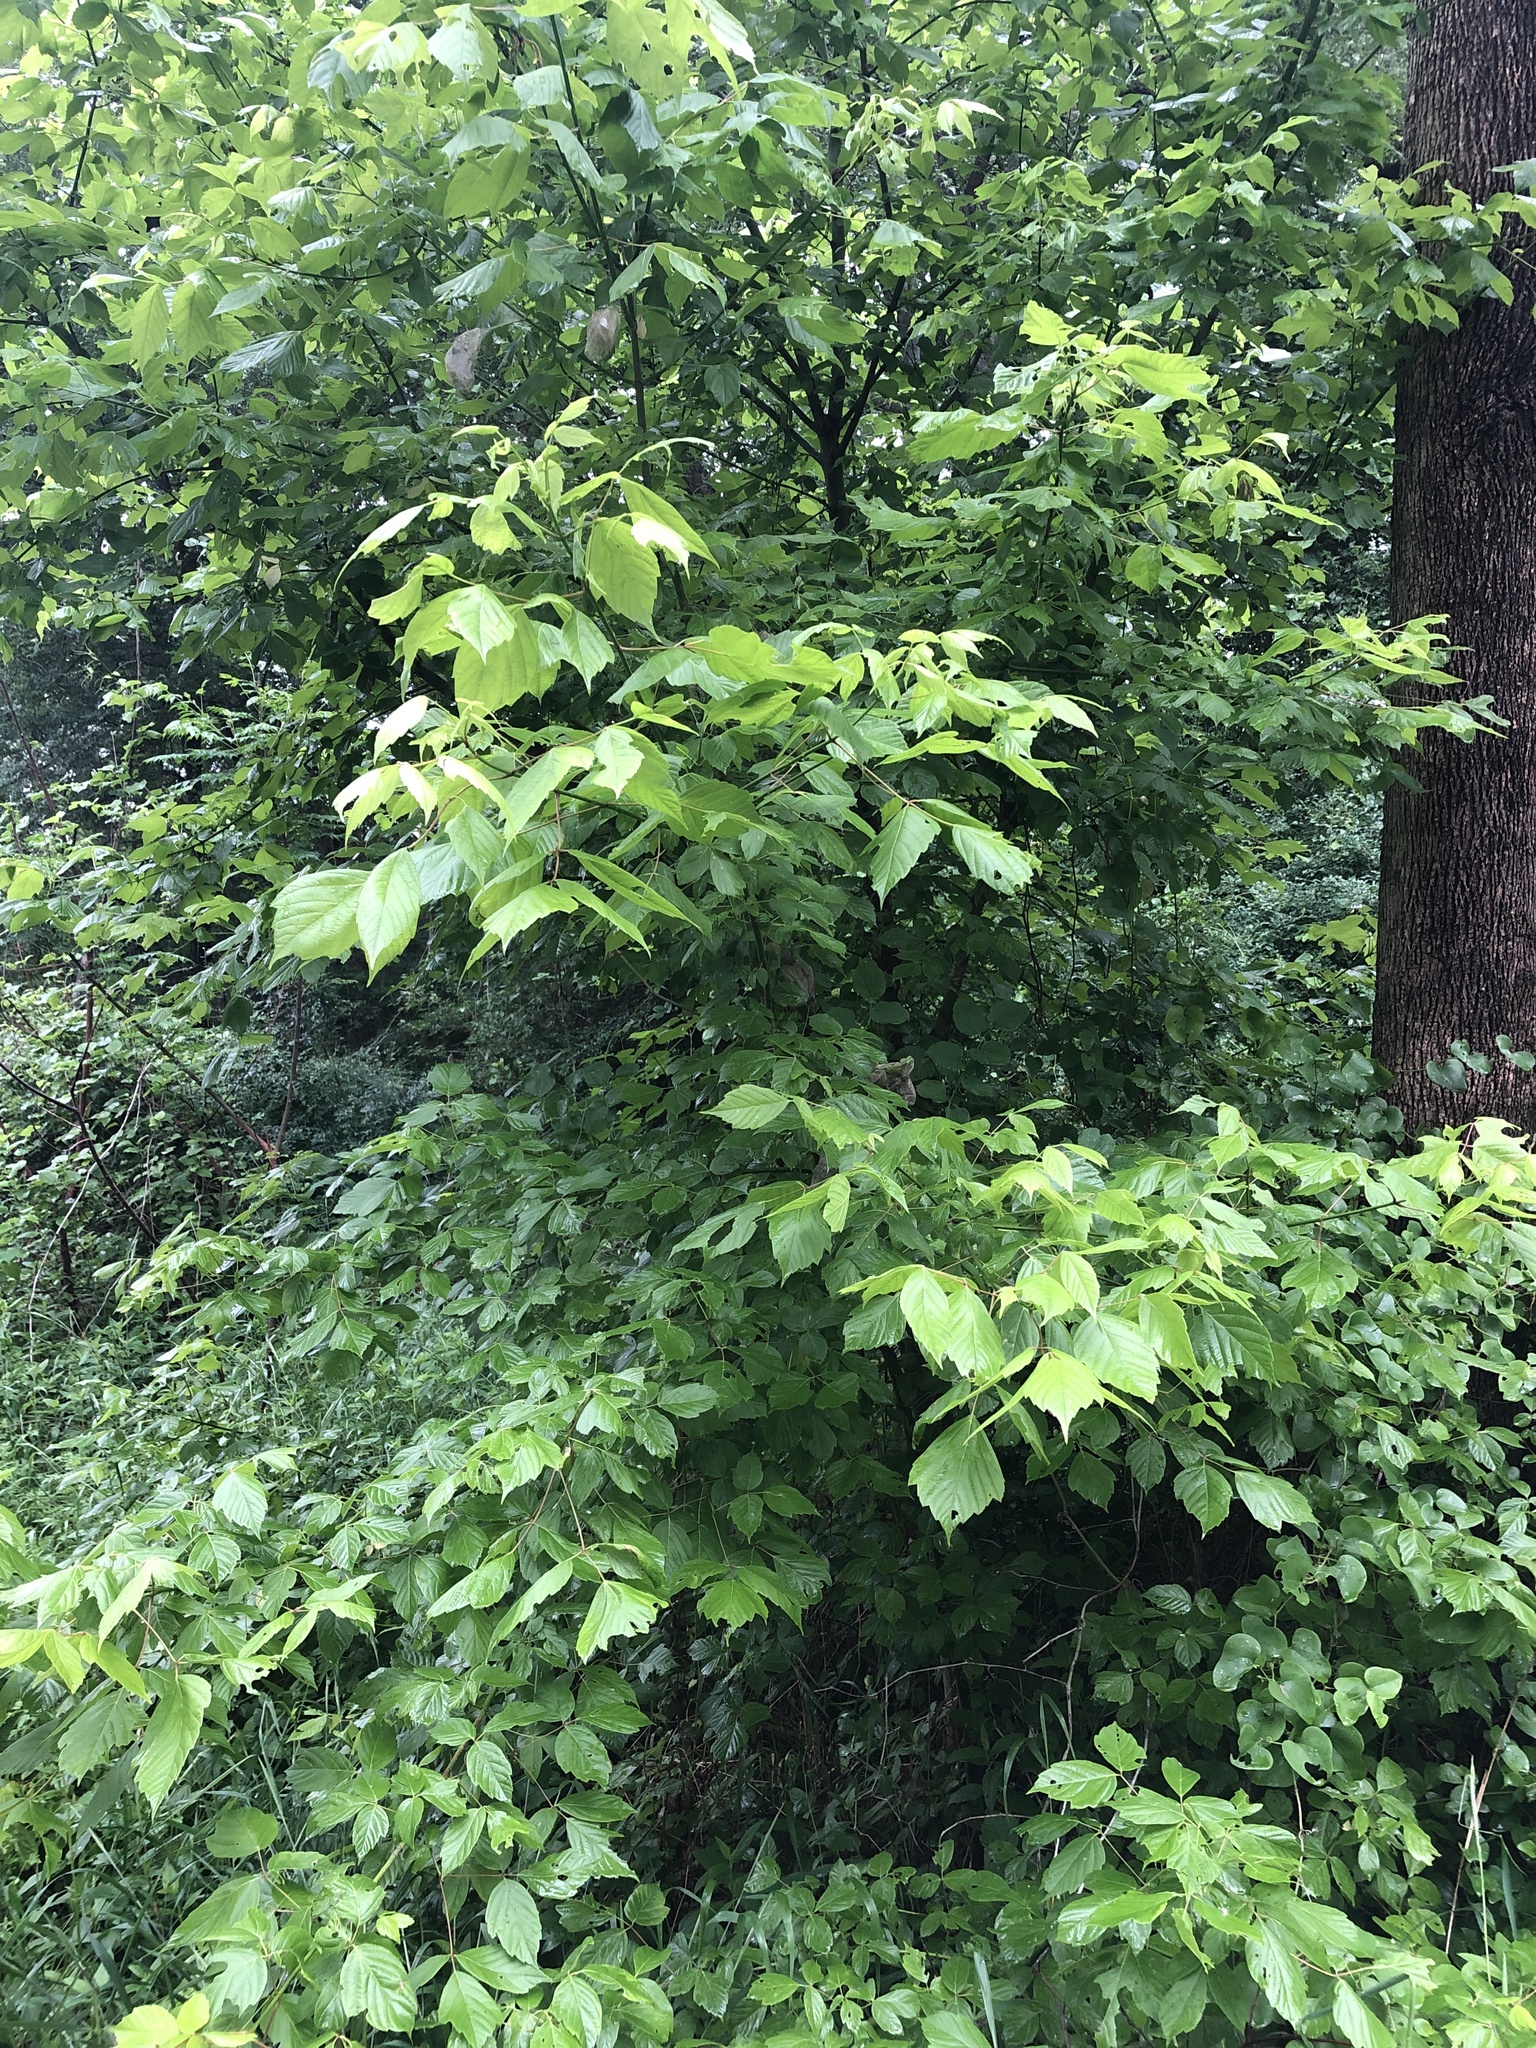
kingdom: Plantae
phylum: Tracheophyta
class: Magnoliopsida
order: Sapindales
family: Sapindaceae
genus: Acer
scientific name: Acer negundo
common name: Ashleaf maple
